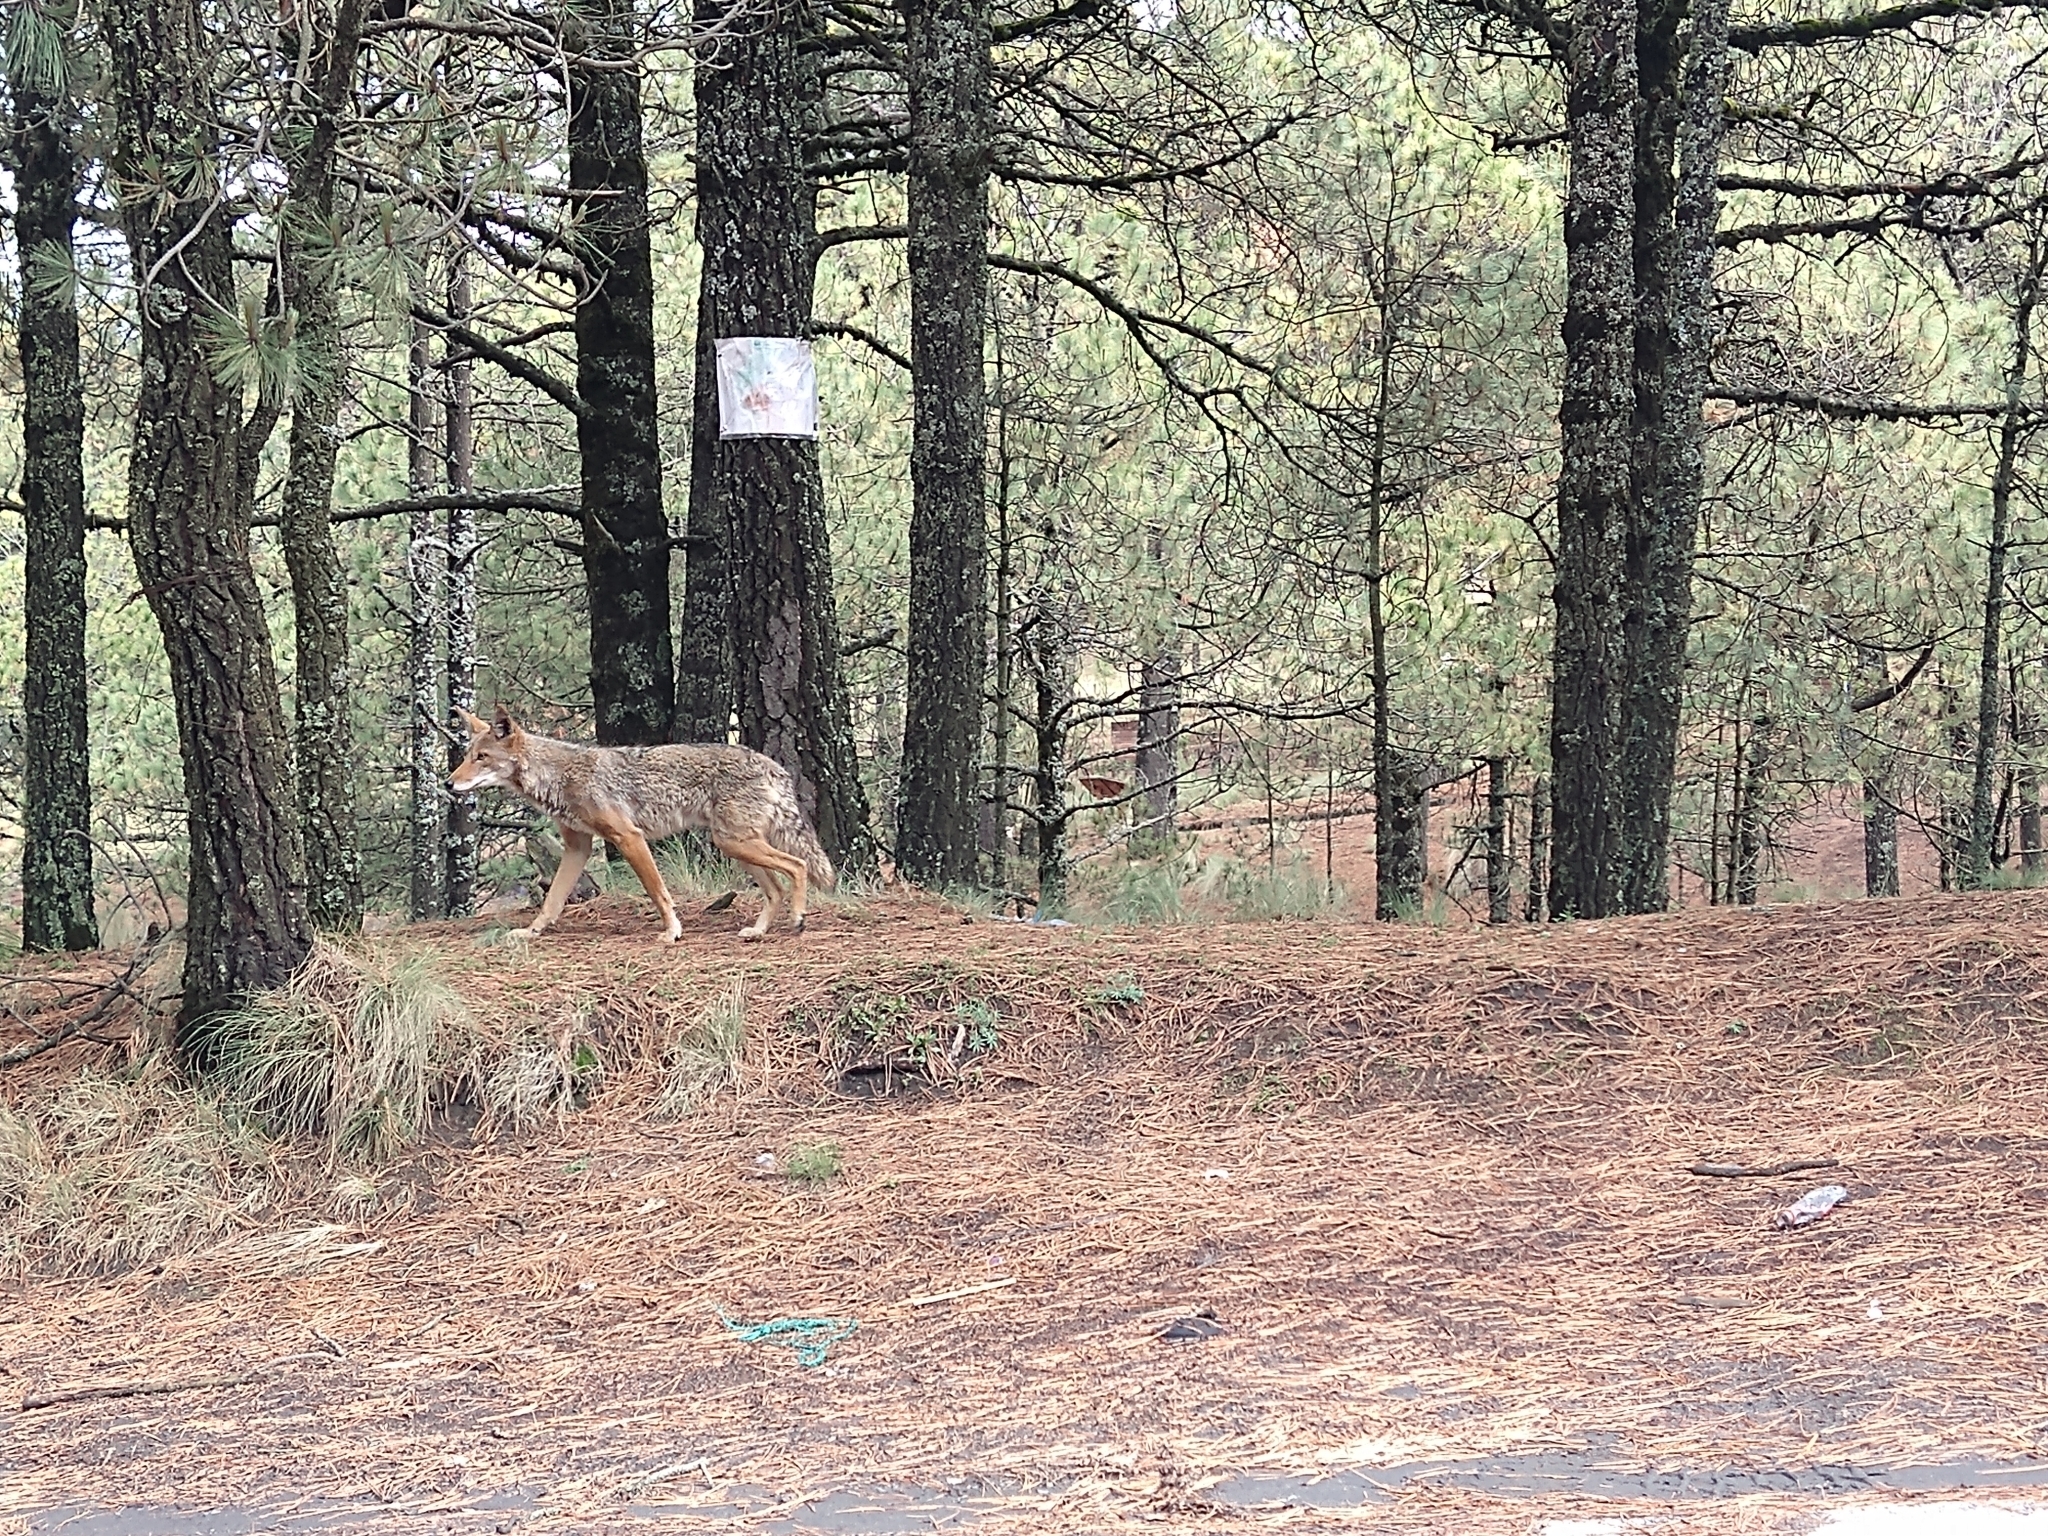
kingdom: Animalia
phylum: Chordata
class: Mammalia
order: Carnivora
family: Canidae
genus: Canis
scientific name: Canis latrans
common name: Coyote
